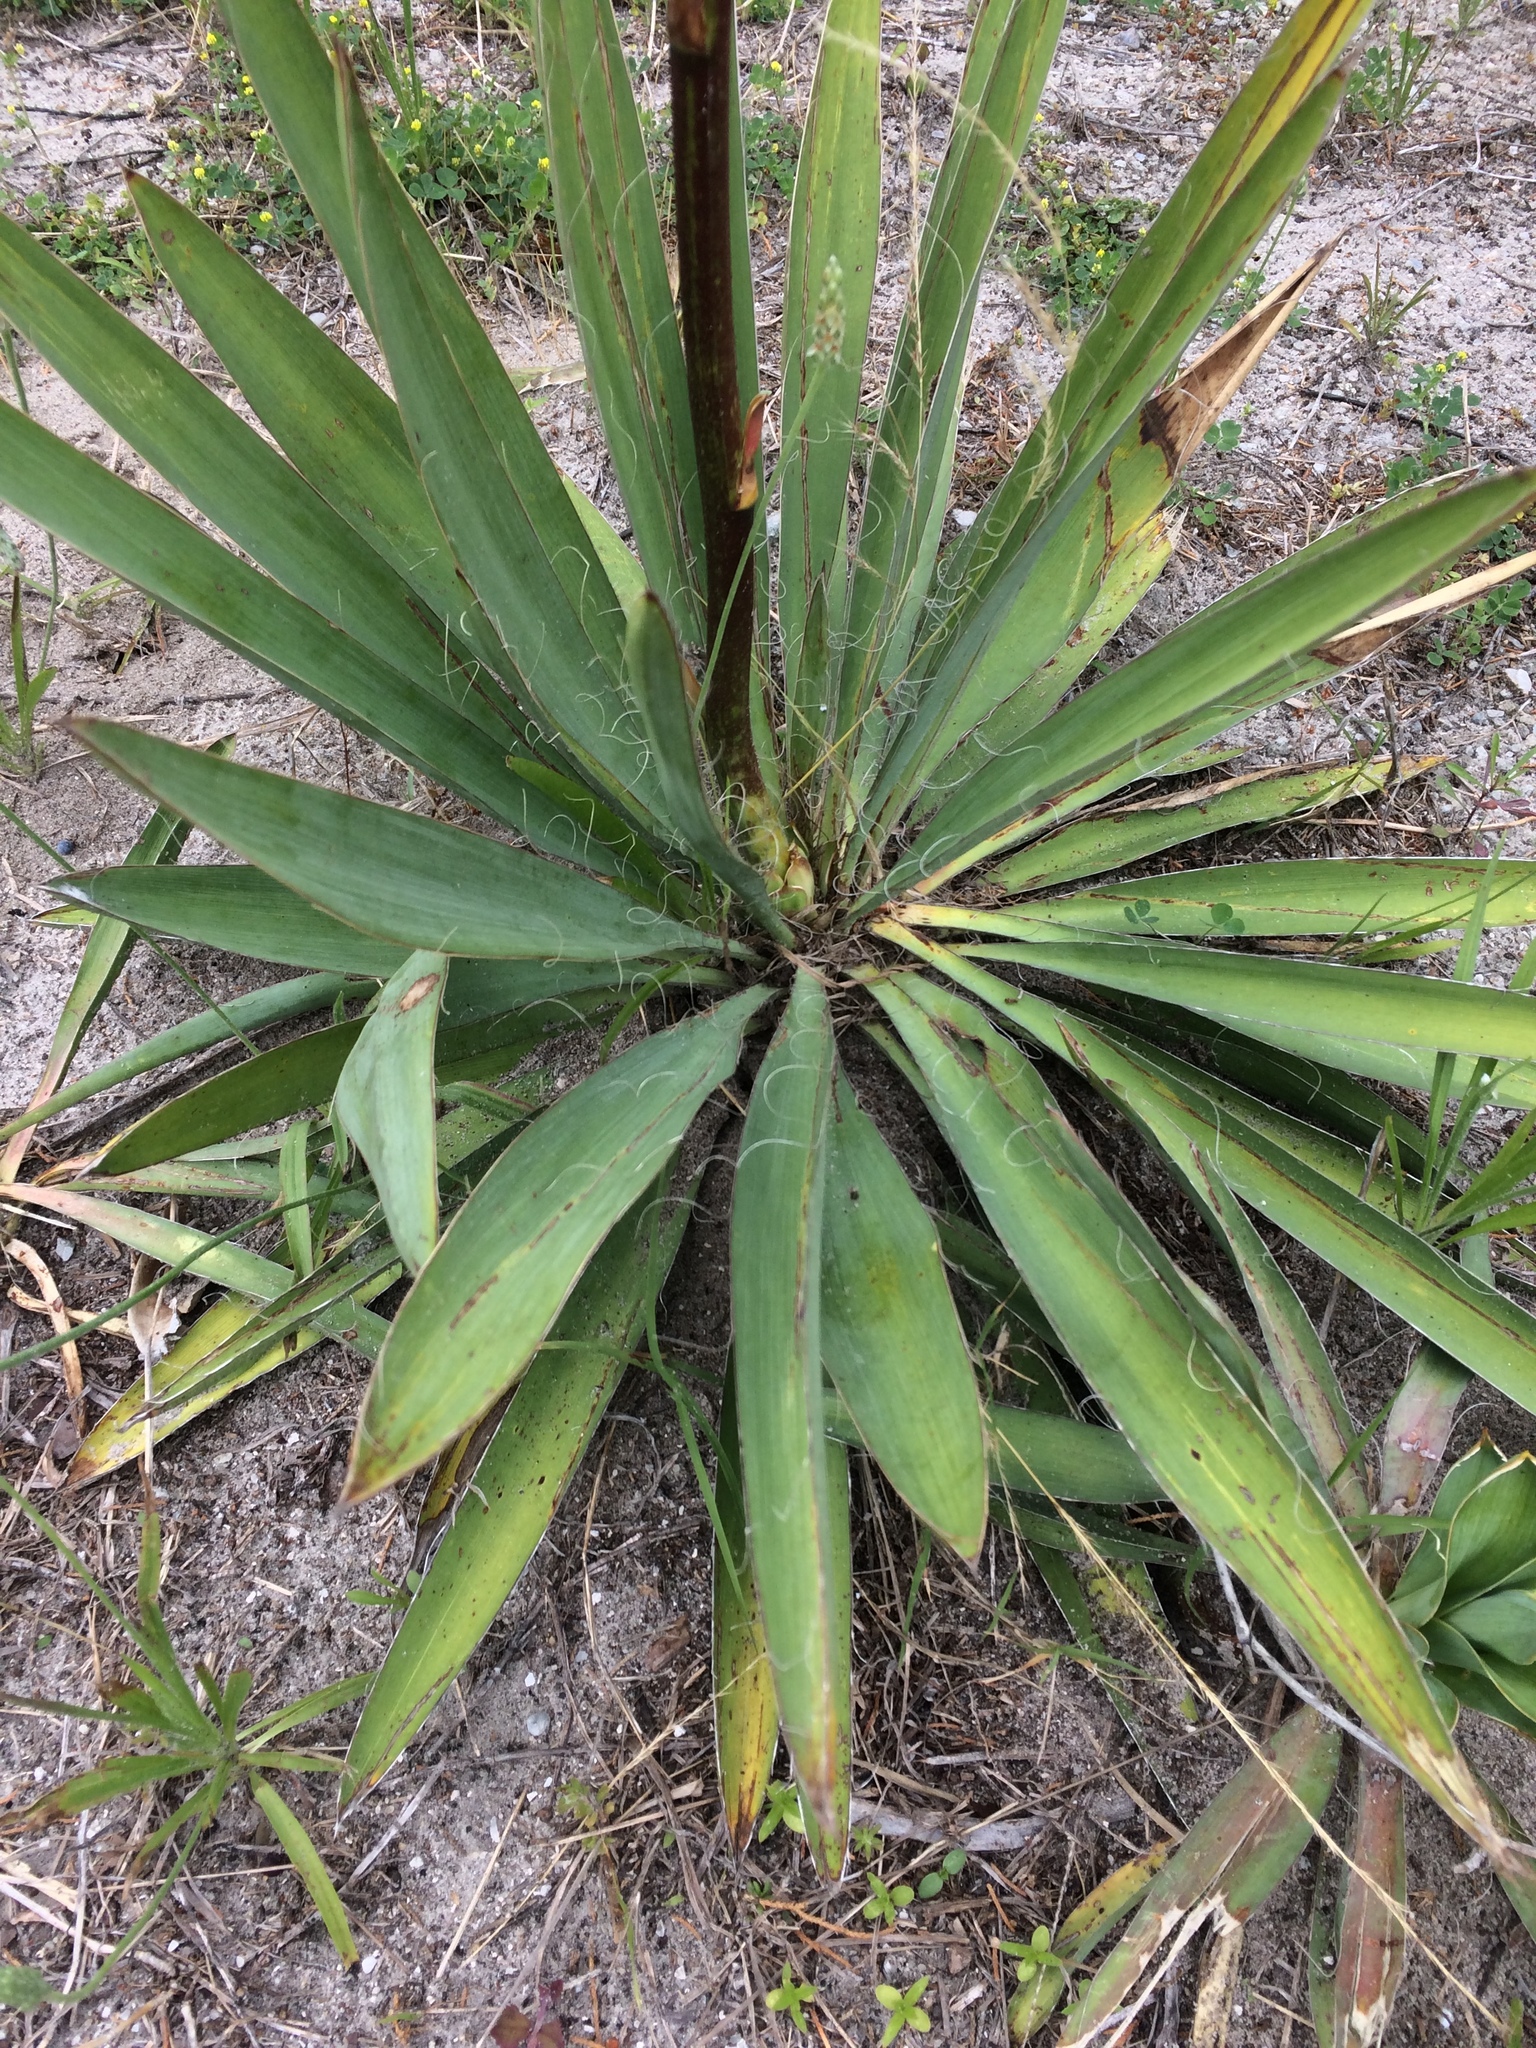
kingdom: Plantae
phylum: Tracheophyta
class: Liliopsida
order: Asparagales
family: Asparagaceae
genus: Yucca
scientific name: Yucca filamentosa
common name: Adam's-needle
